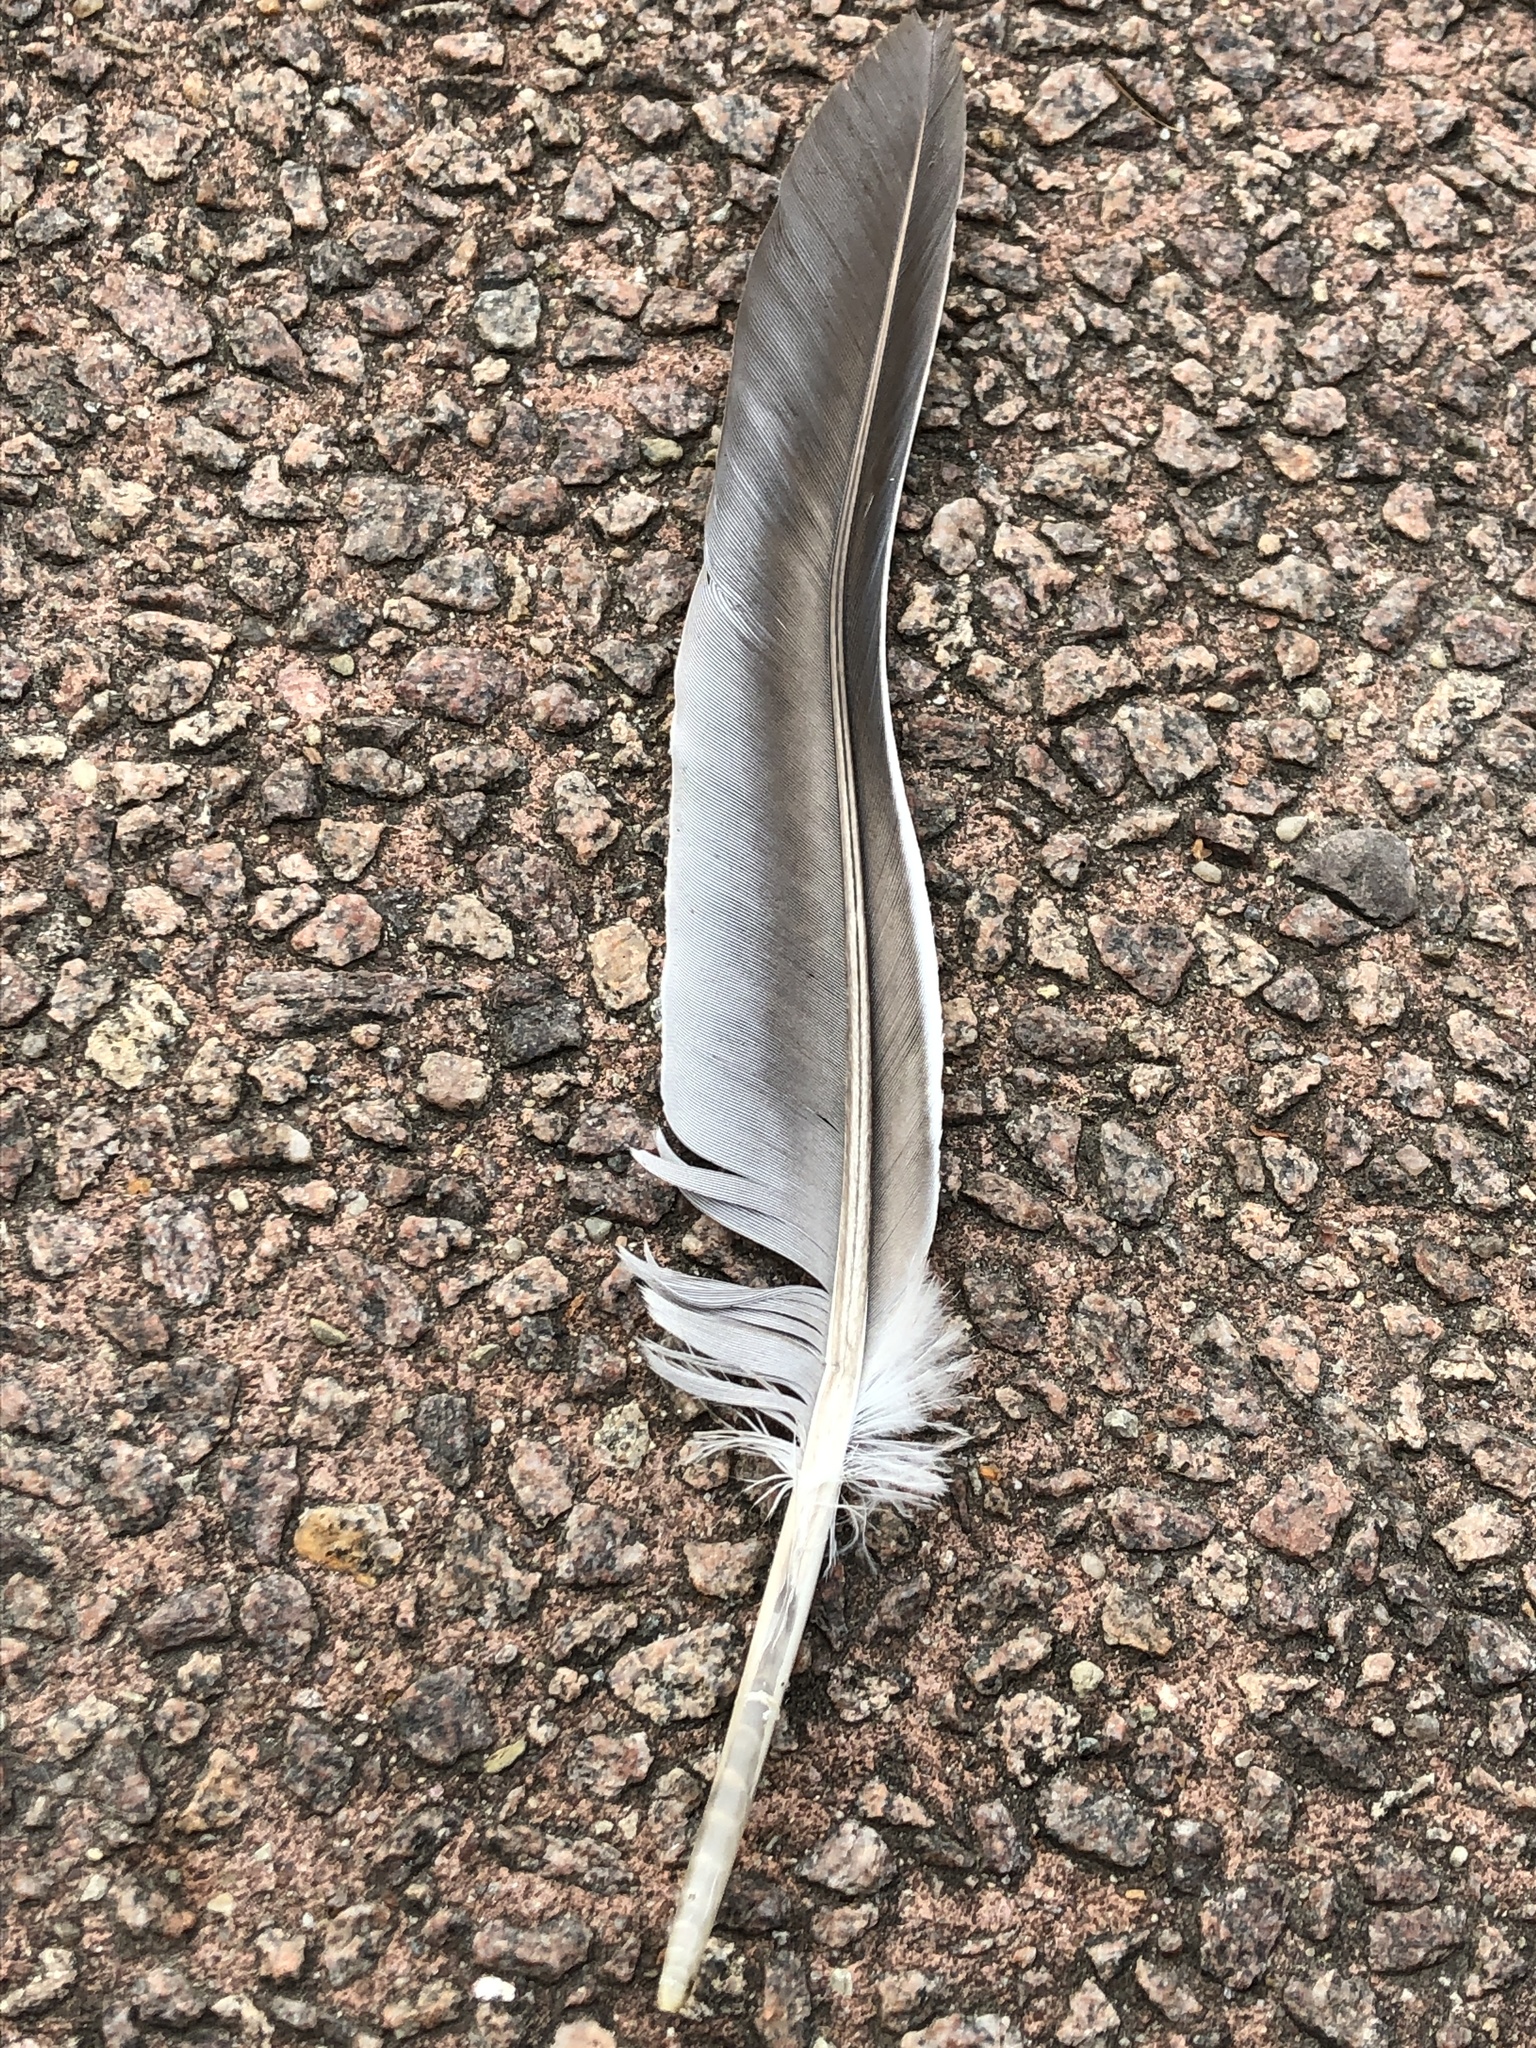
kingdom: Animalia
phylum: Chordata
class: Aves
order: Columbiformes
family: Columbidae
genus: Columba
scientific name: Columba palumbus
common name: Common wood pigeon
